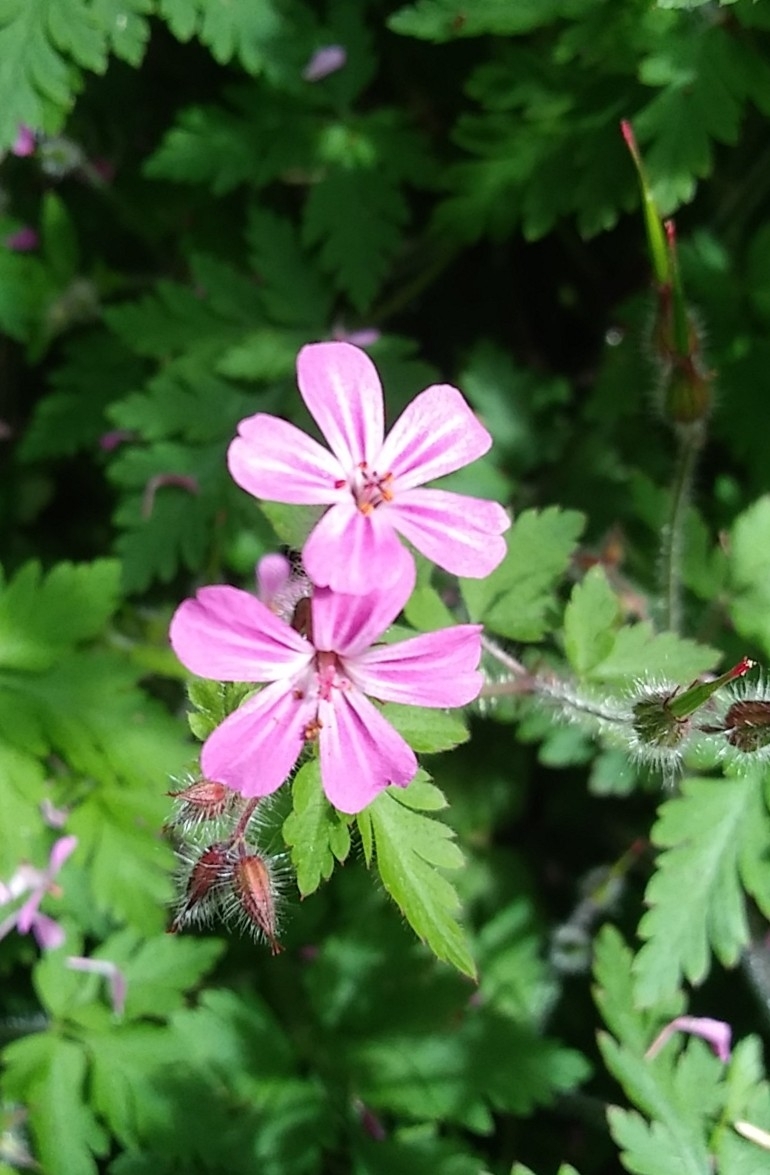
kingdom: Plantae
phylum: Tracheophyta
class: Magnoliopsida
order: Geraniales
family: Geraniaceae
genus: Geranium
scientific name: Geranium robertianum
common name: Herb-robert
